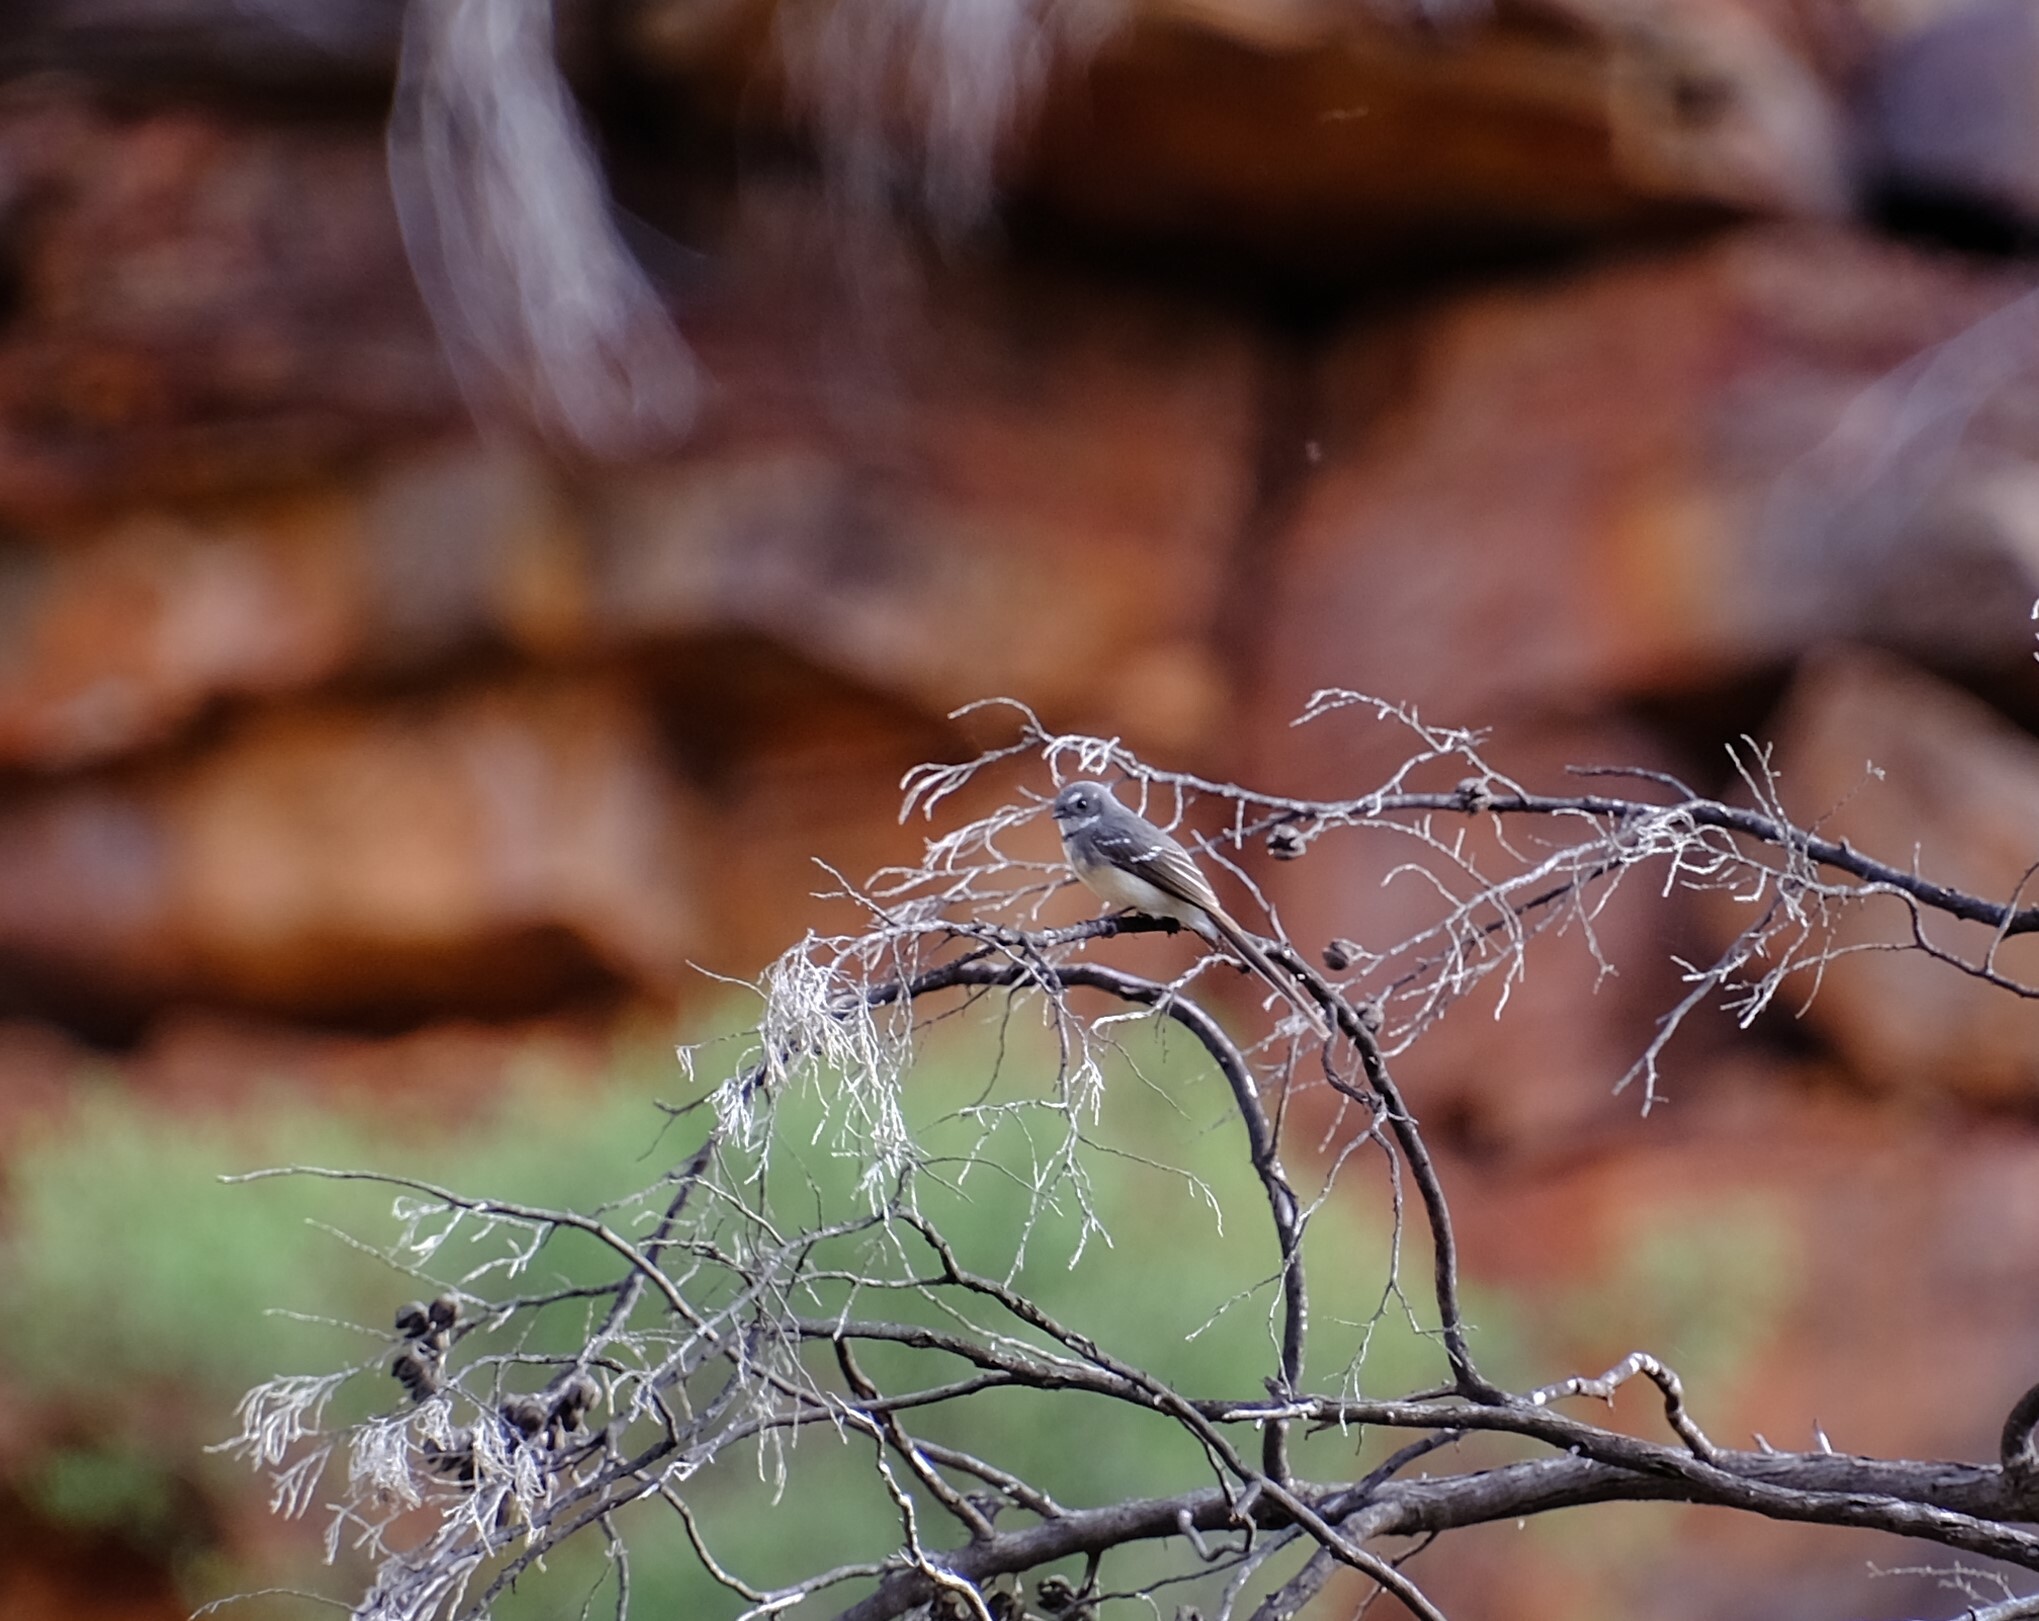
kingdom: Animalia
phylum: Chordata
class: Aves
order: Passeriformes
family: Rhipiduridae
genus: Rhipidura
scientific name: Rhipidura albiscapa
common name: Grey fantail
